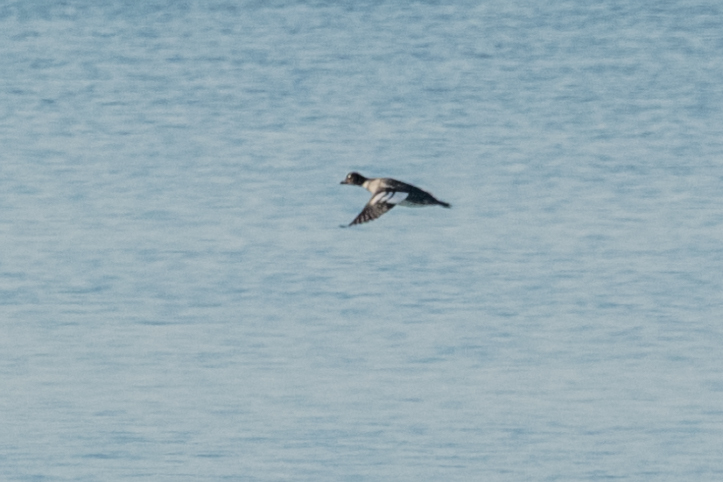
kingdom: Animalia
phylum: Chordata
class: Aves
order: Anseriformes
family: Anatidae
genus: Bucephala
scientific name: Bucephala clangula
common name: Common goldeneye
